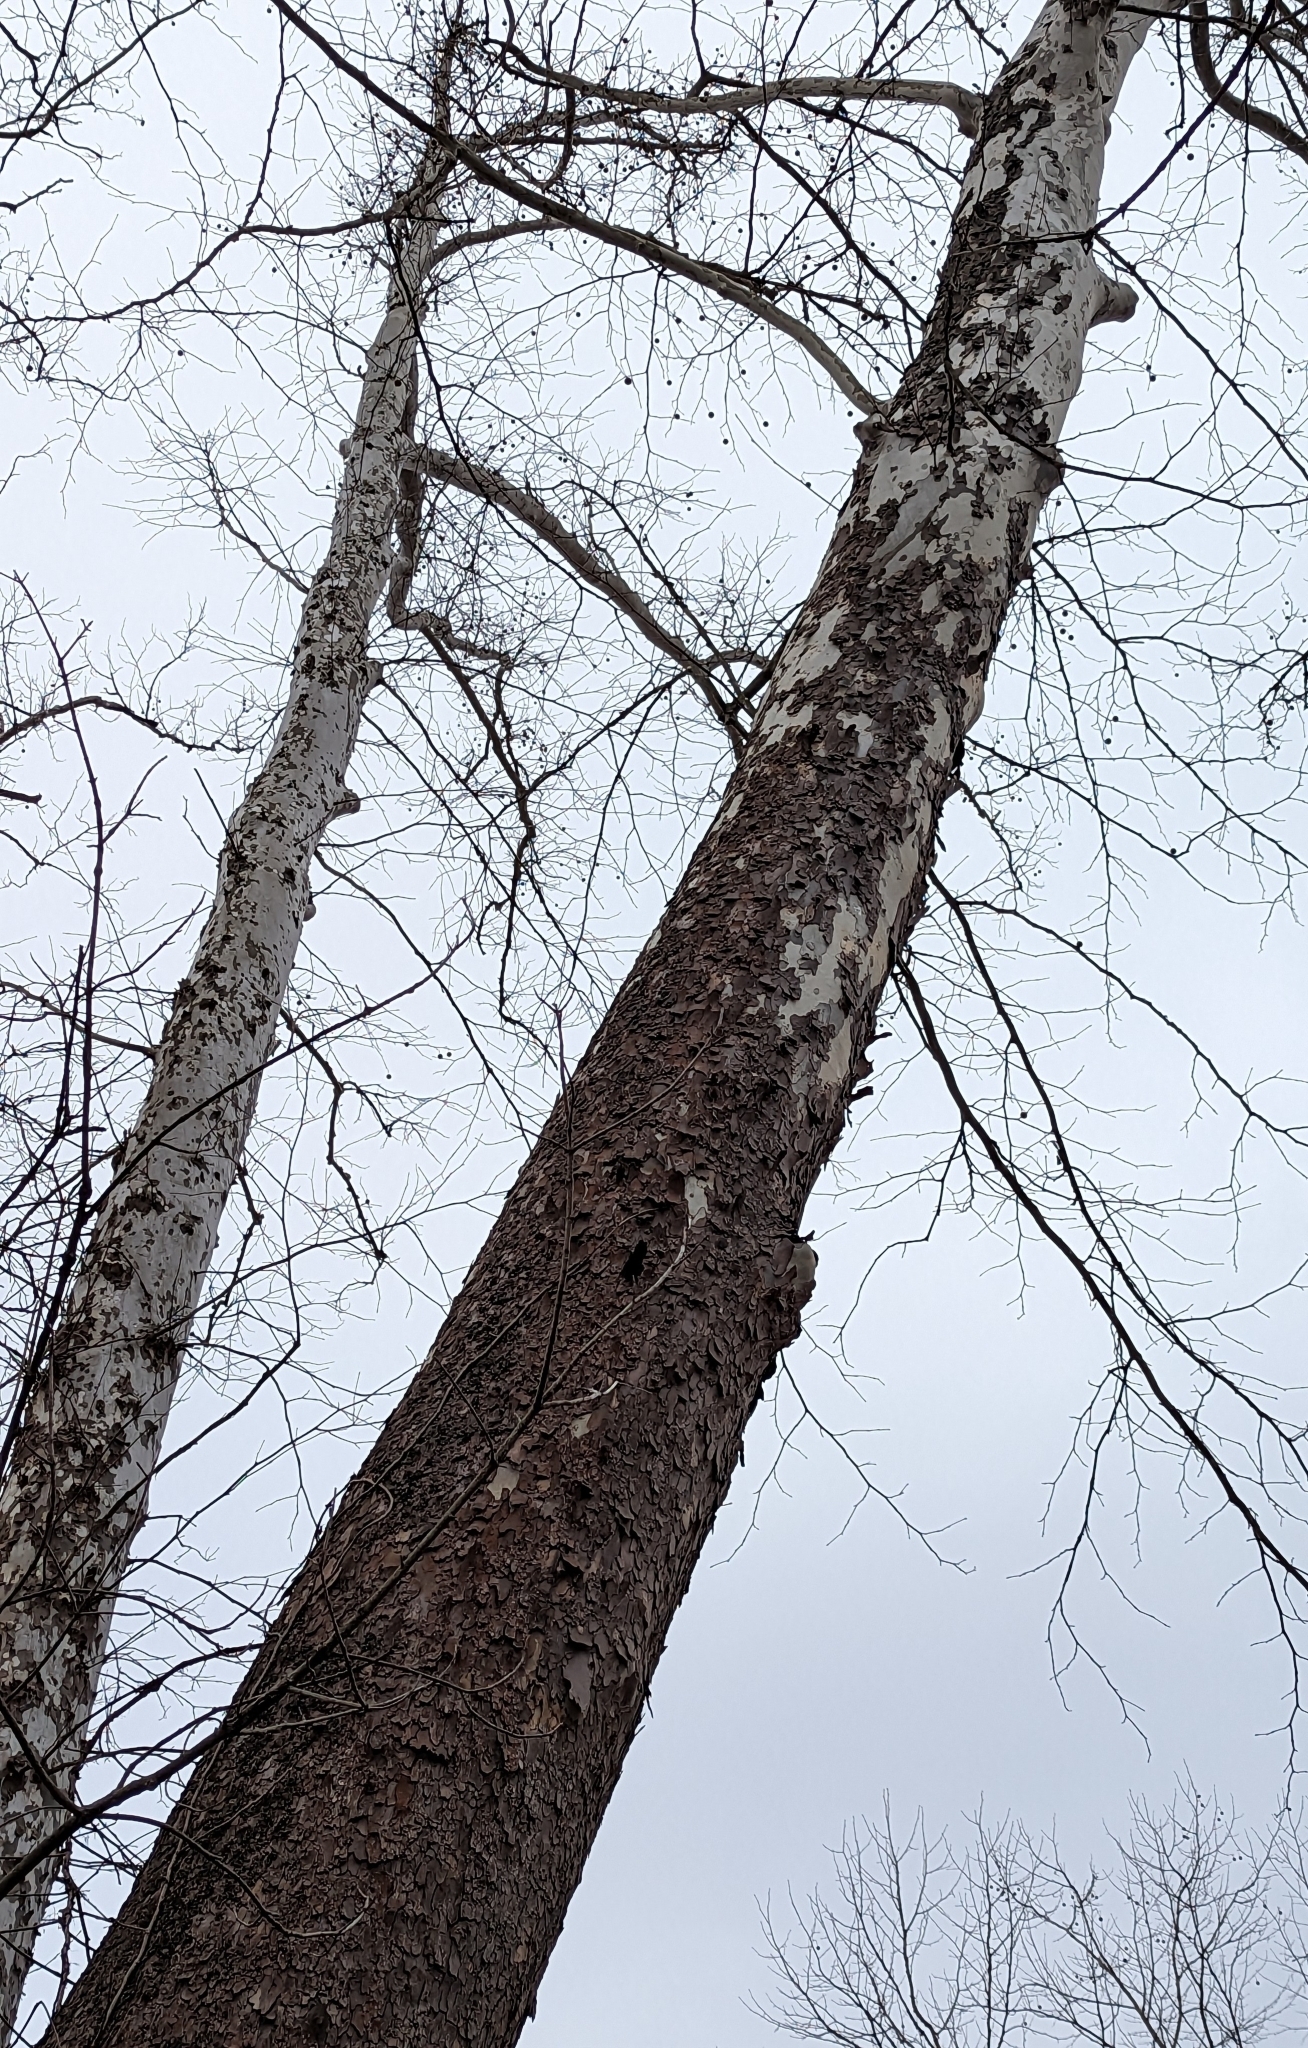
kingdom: Plantae
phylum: Tracheophyta
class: Magnoliopsida
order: Proteales
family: Platanaceae
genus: Platanus
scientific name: Platanus occidentalis
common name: American sycamore
